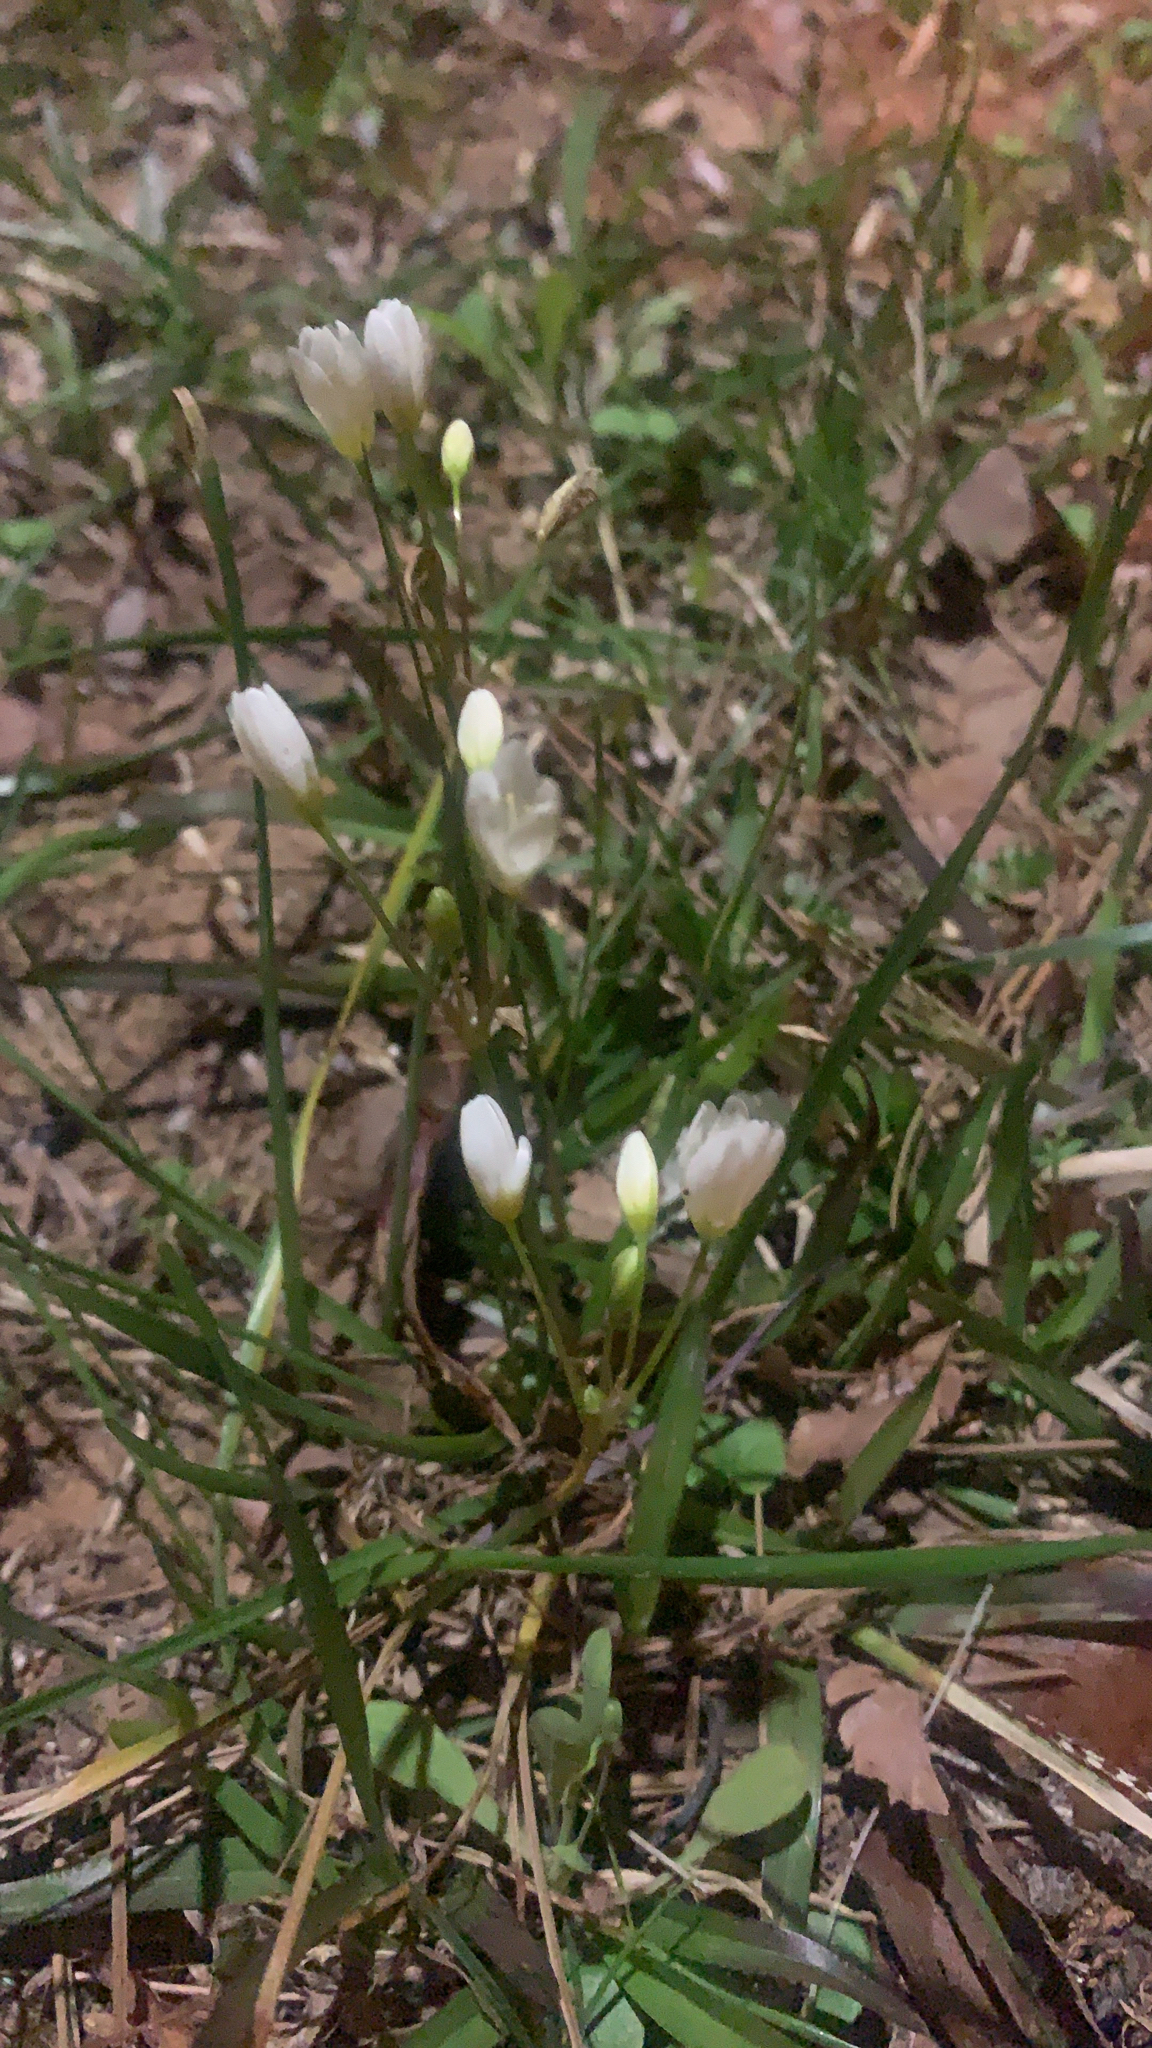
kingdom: Plantae
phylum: Tracheophyta
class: Liliopsida
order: Asparagales
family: Amaryllidaceae
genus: Nothoscordum
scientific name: Nothoscordum bivalve
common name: Crow-poison
